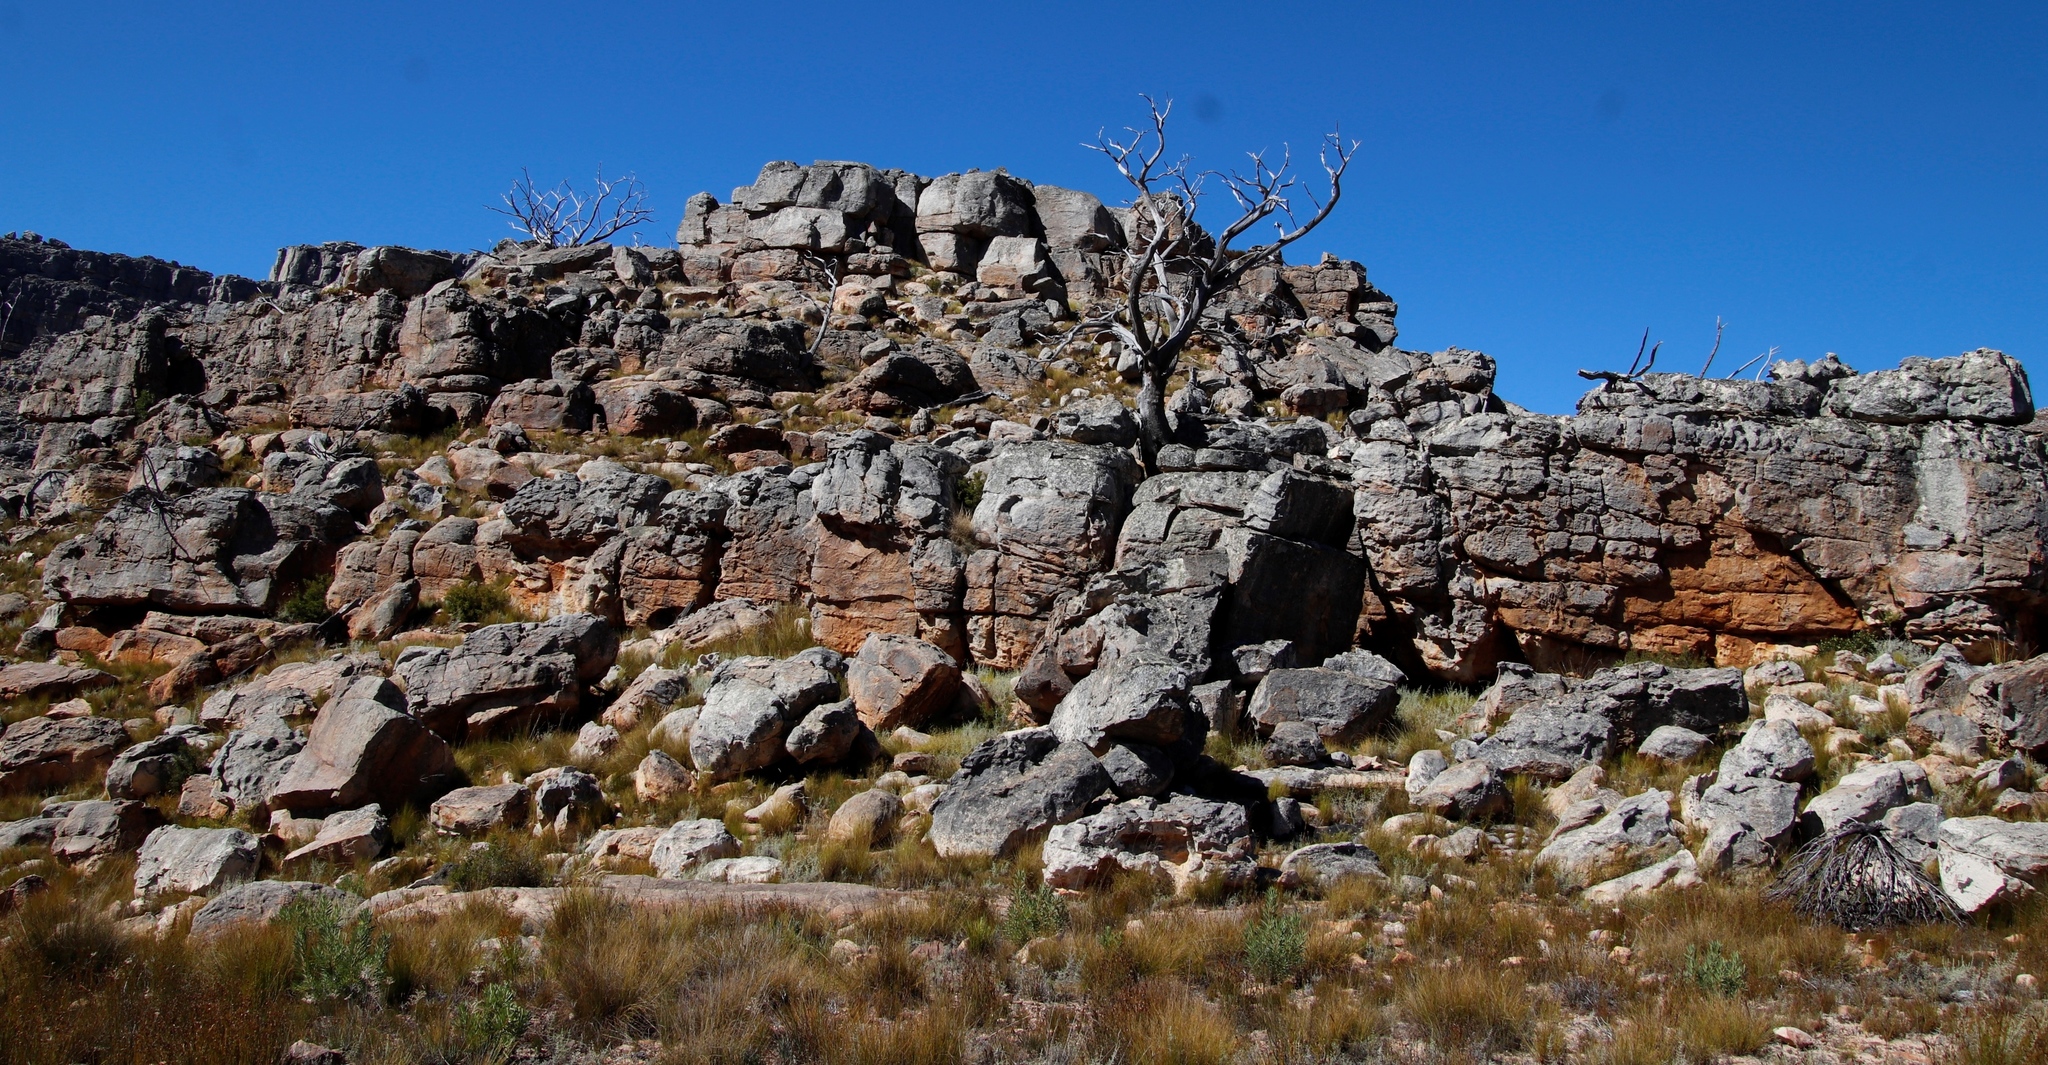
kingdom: Plantae
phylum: Tracheophyta
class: Pinopsida
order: Pinales
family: Cupressaceae
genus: Widdringtonia
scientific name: Widdringtonia nodiflora
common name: Cape cypress
